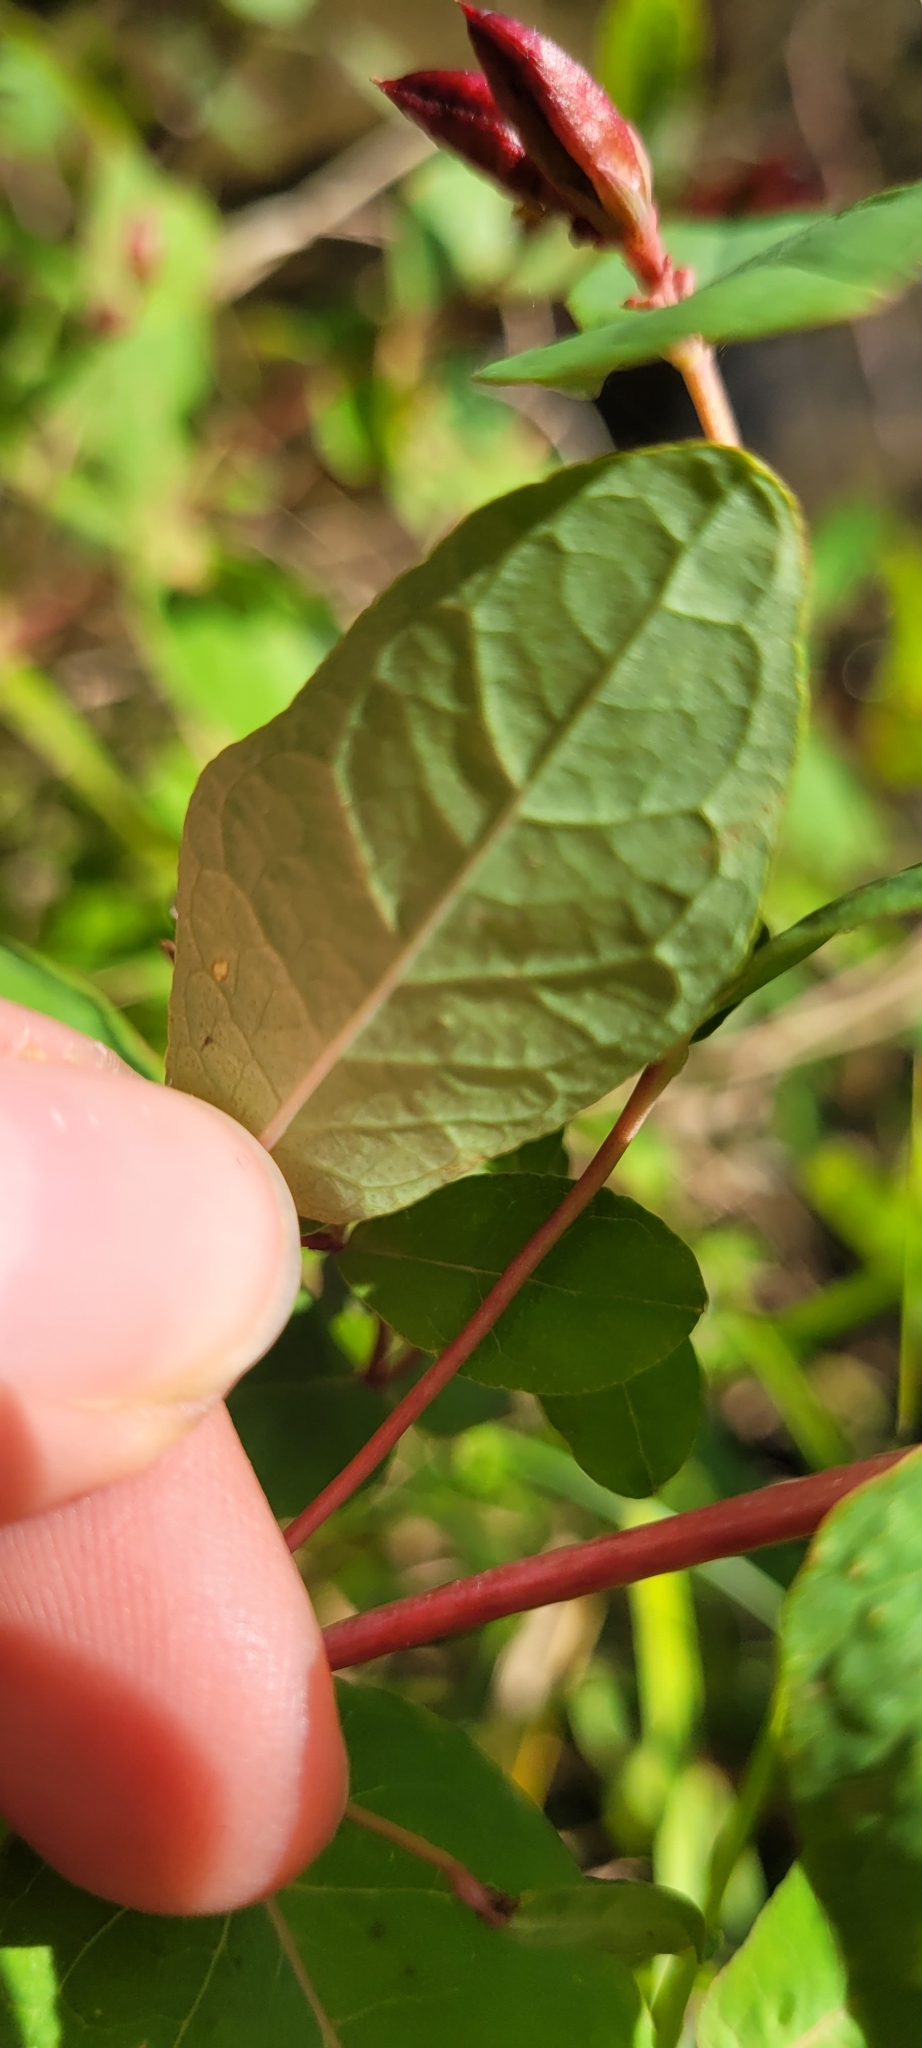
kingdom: Plantae
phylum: Tracheophyta
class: Magnoliopsida
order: Malpighiales
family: Hypericaceae
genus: Triadenum
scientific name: Triadenum fraseri
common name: Fraser's marsh st. johnswort
